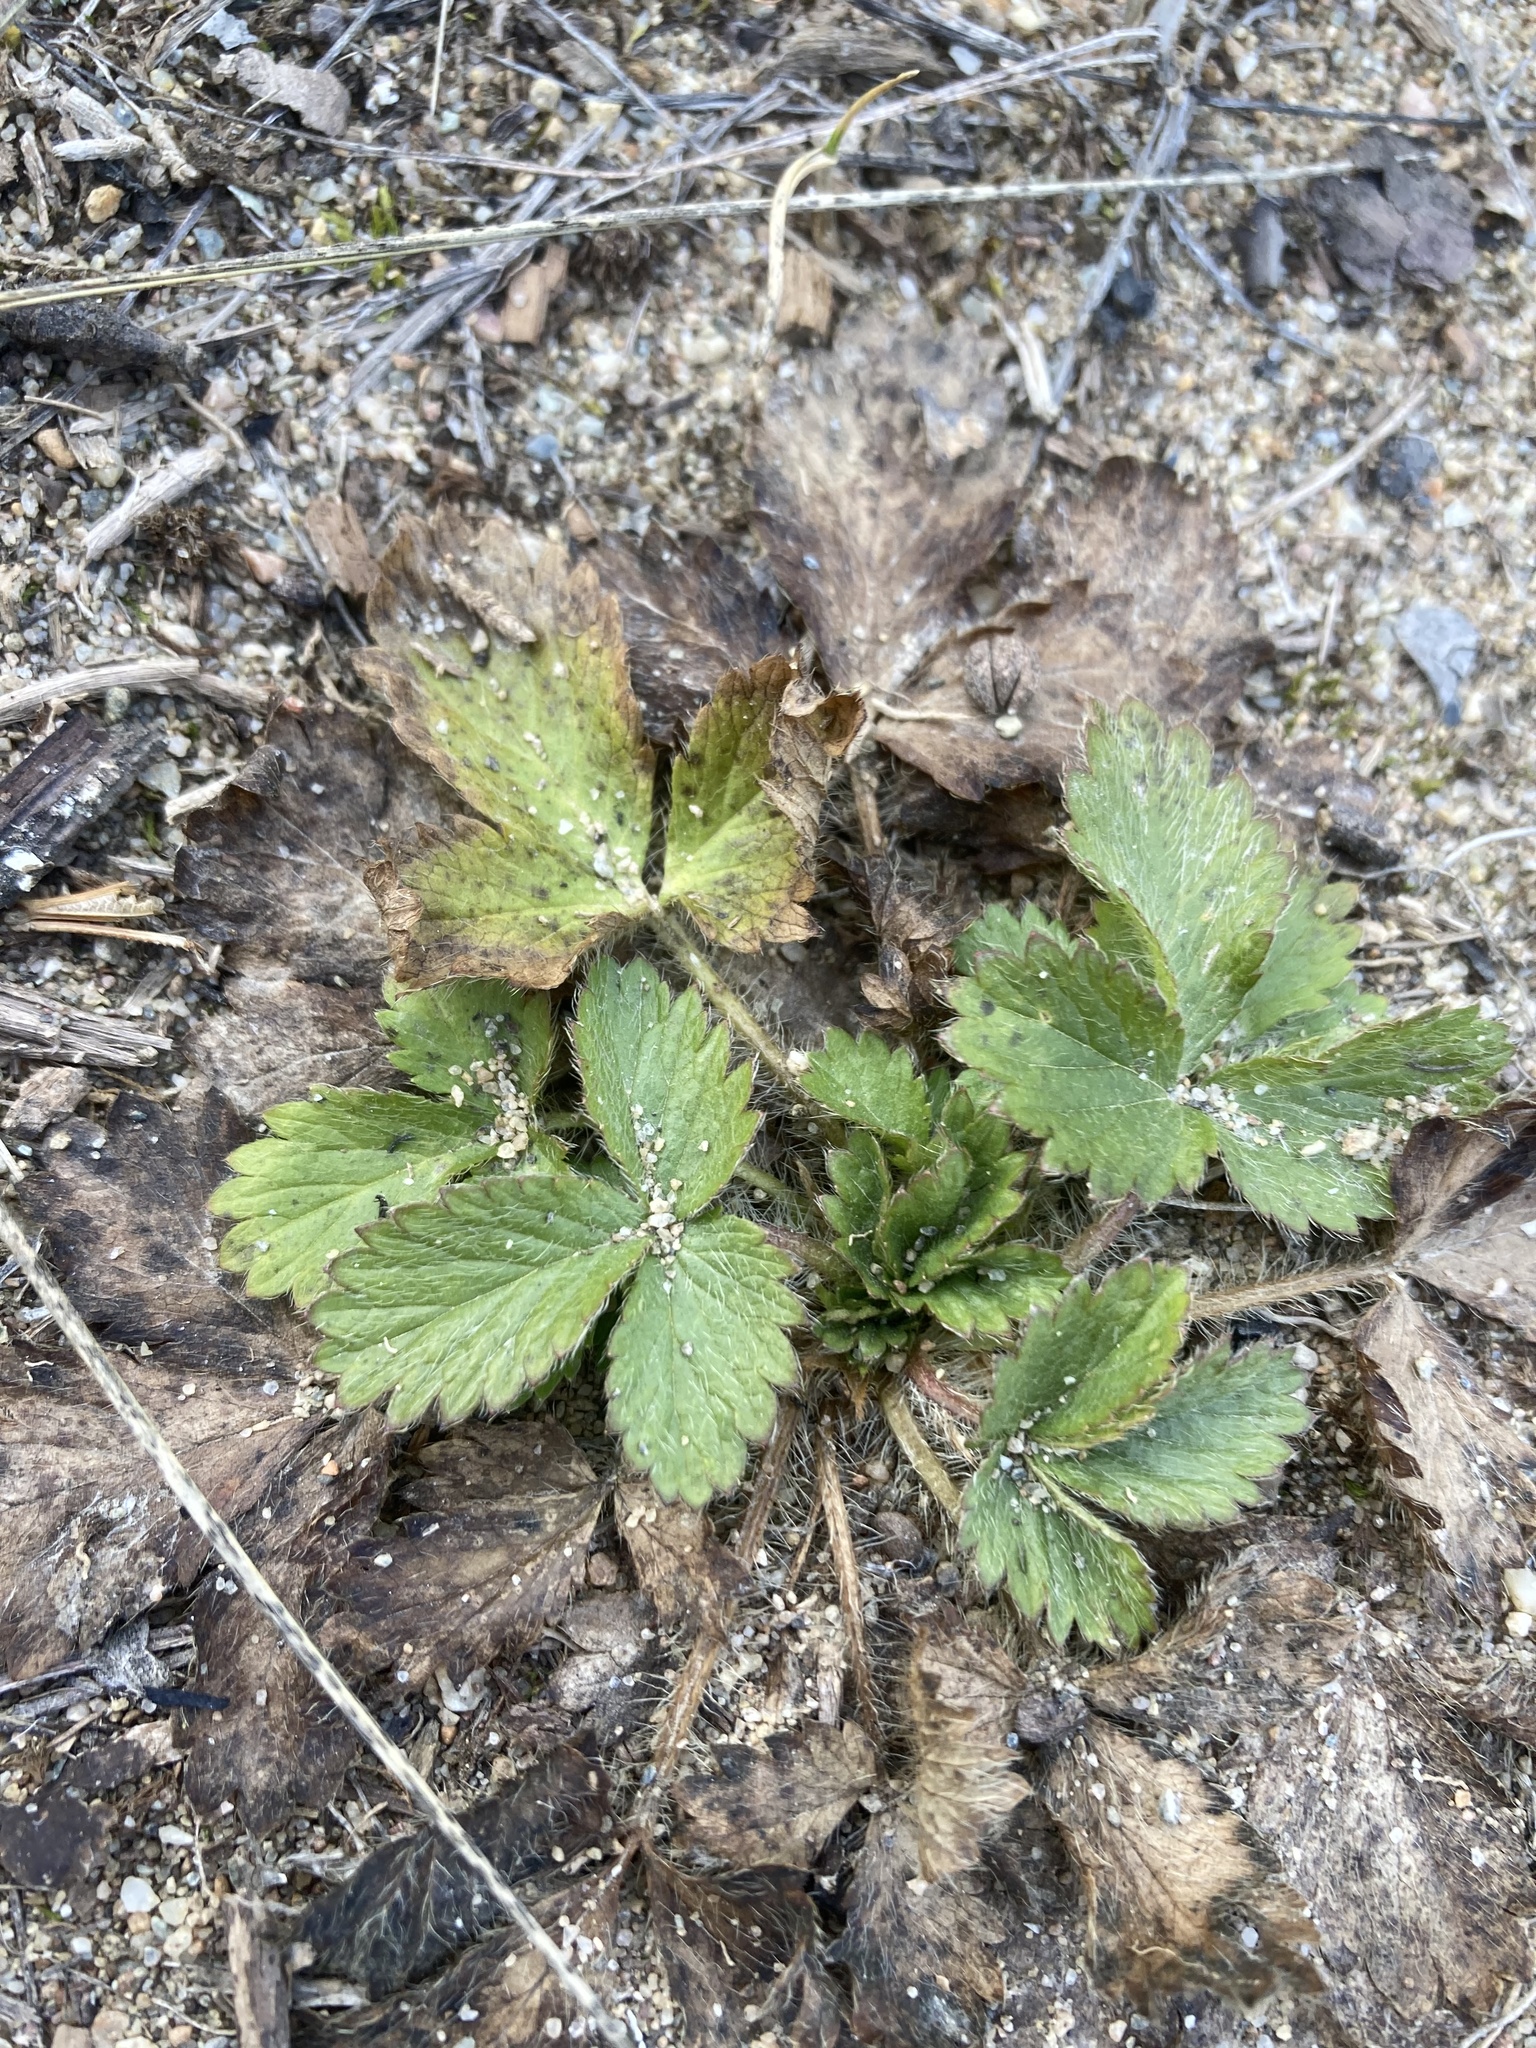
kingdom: Plantae
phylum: Tracheophyta
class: Magnoliopsida
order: Rosales
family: Rosaceae
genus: Potentilla
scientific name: Potentilla norvegica
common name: Ternate-leaved cinquefoil
